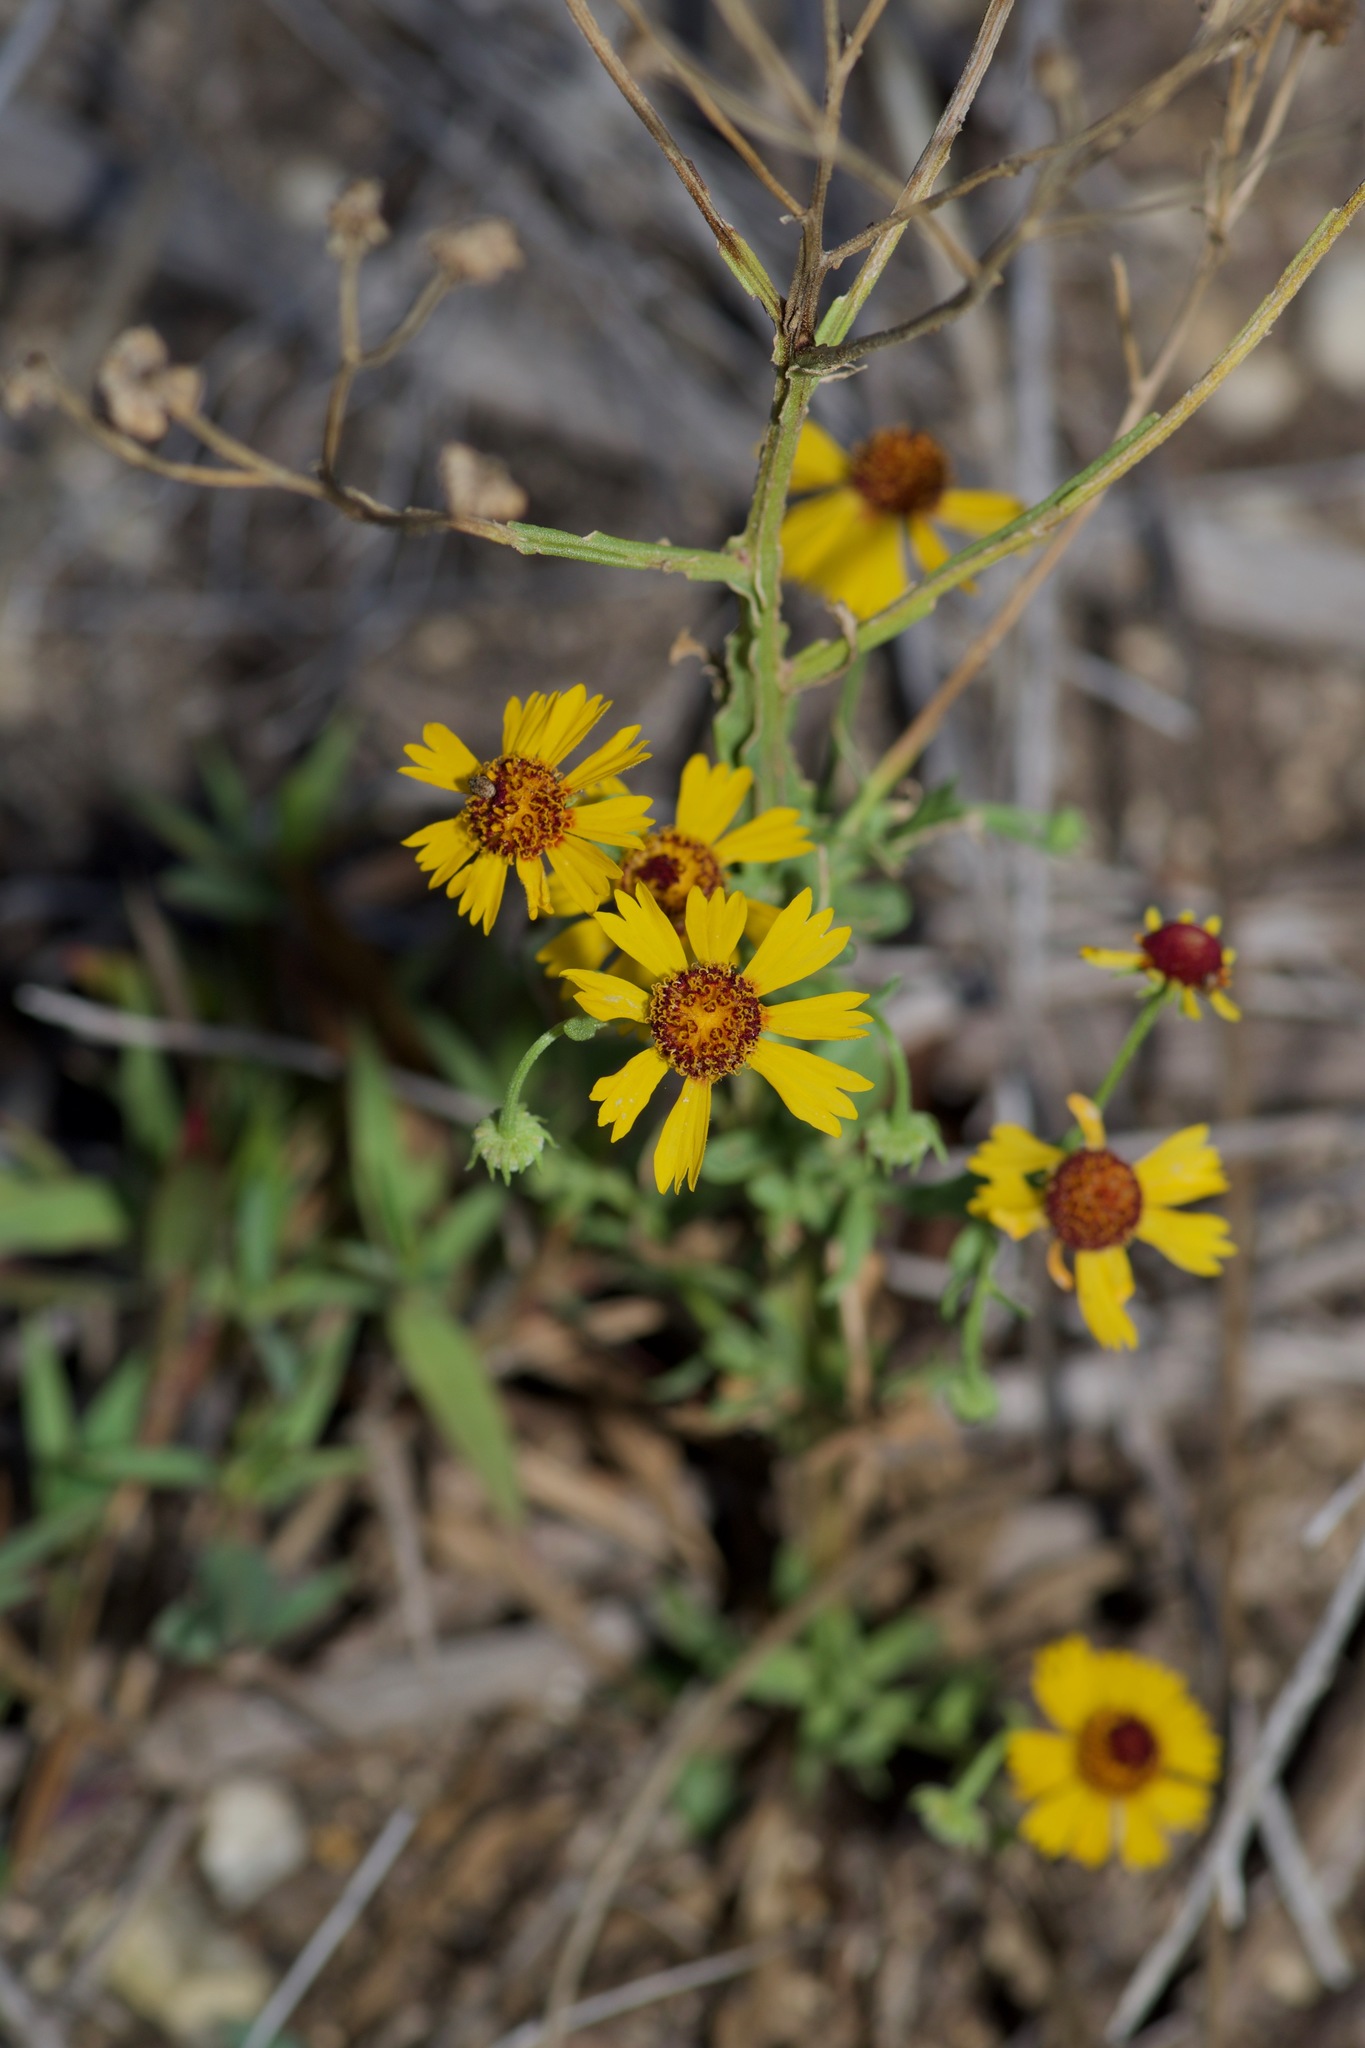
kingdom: Plantae
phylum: Tracheophyta
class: Magnoliopsida
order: Asterales
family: Asteraceae
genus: Helenium
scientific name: Helenium elegans
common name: Pretty sneezeweed
